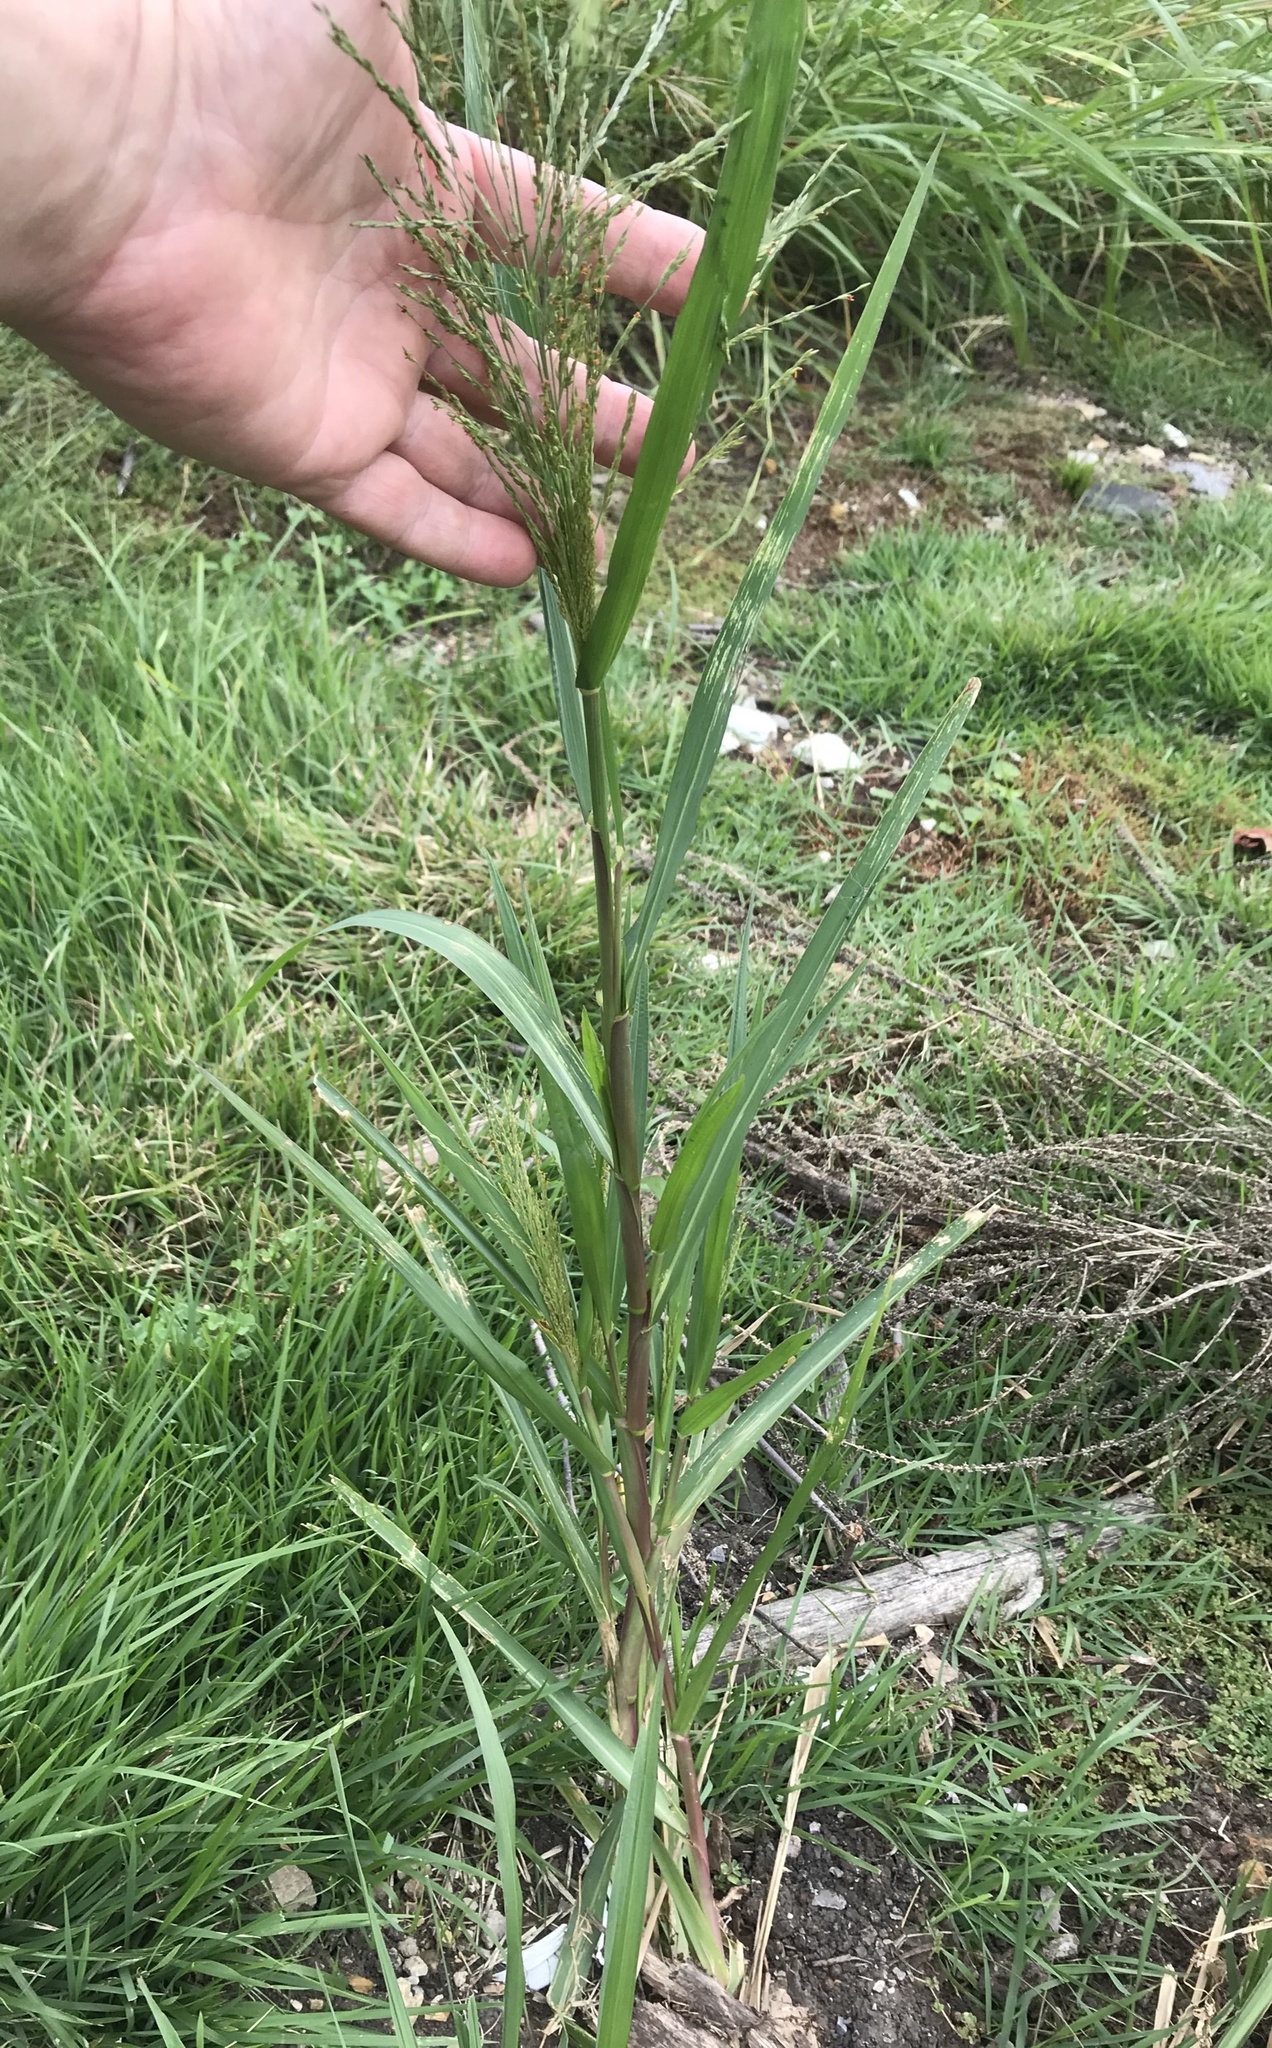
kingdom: Plantae
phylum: Tracheophyta
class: Liliopsida
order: Poales
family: Poaceae
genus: Panicum
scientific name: Panicum dichotomiflorum
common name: Autumn millet
